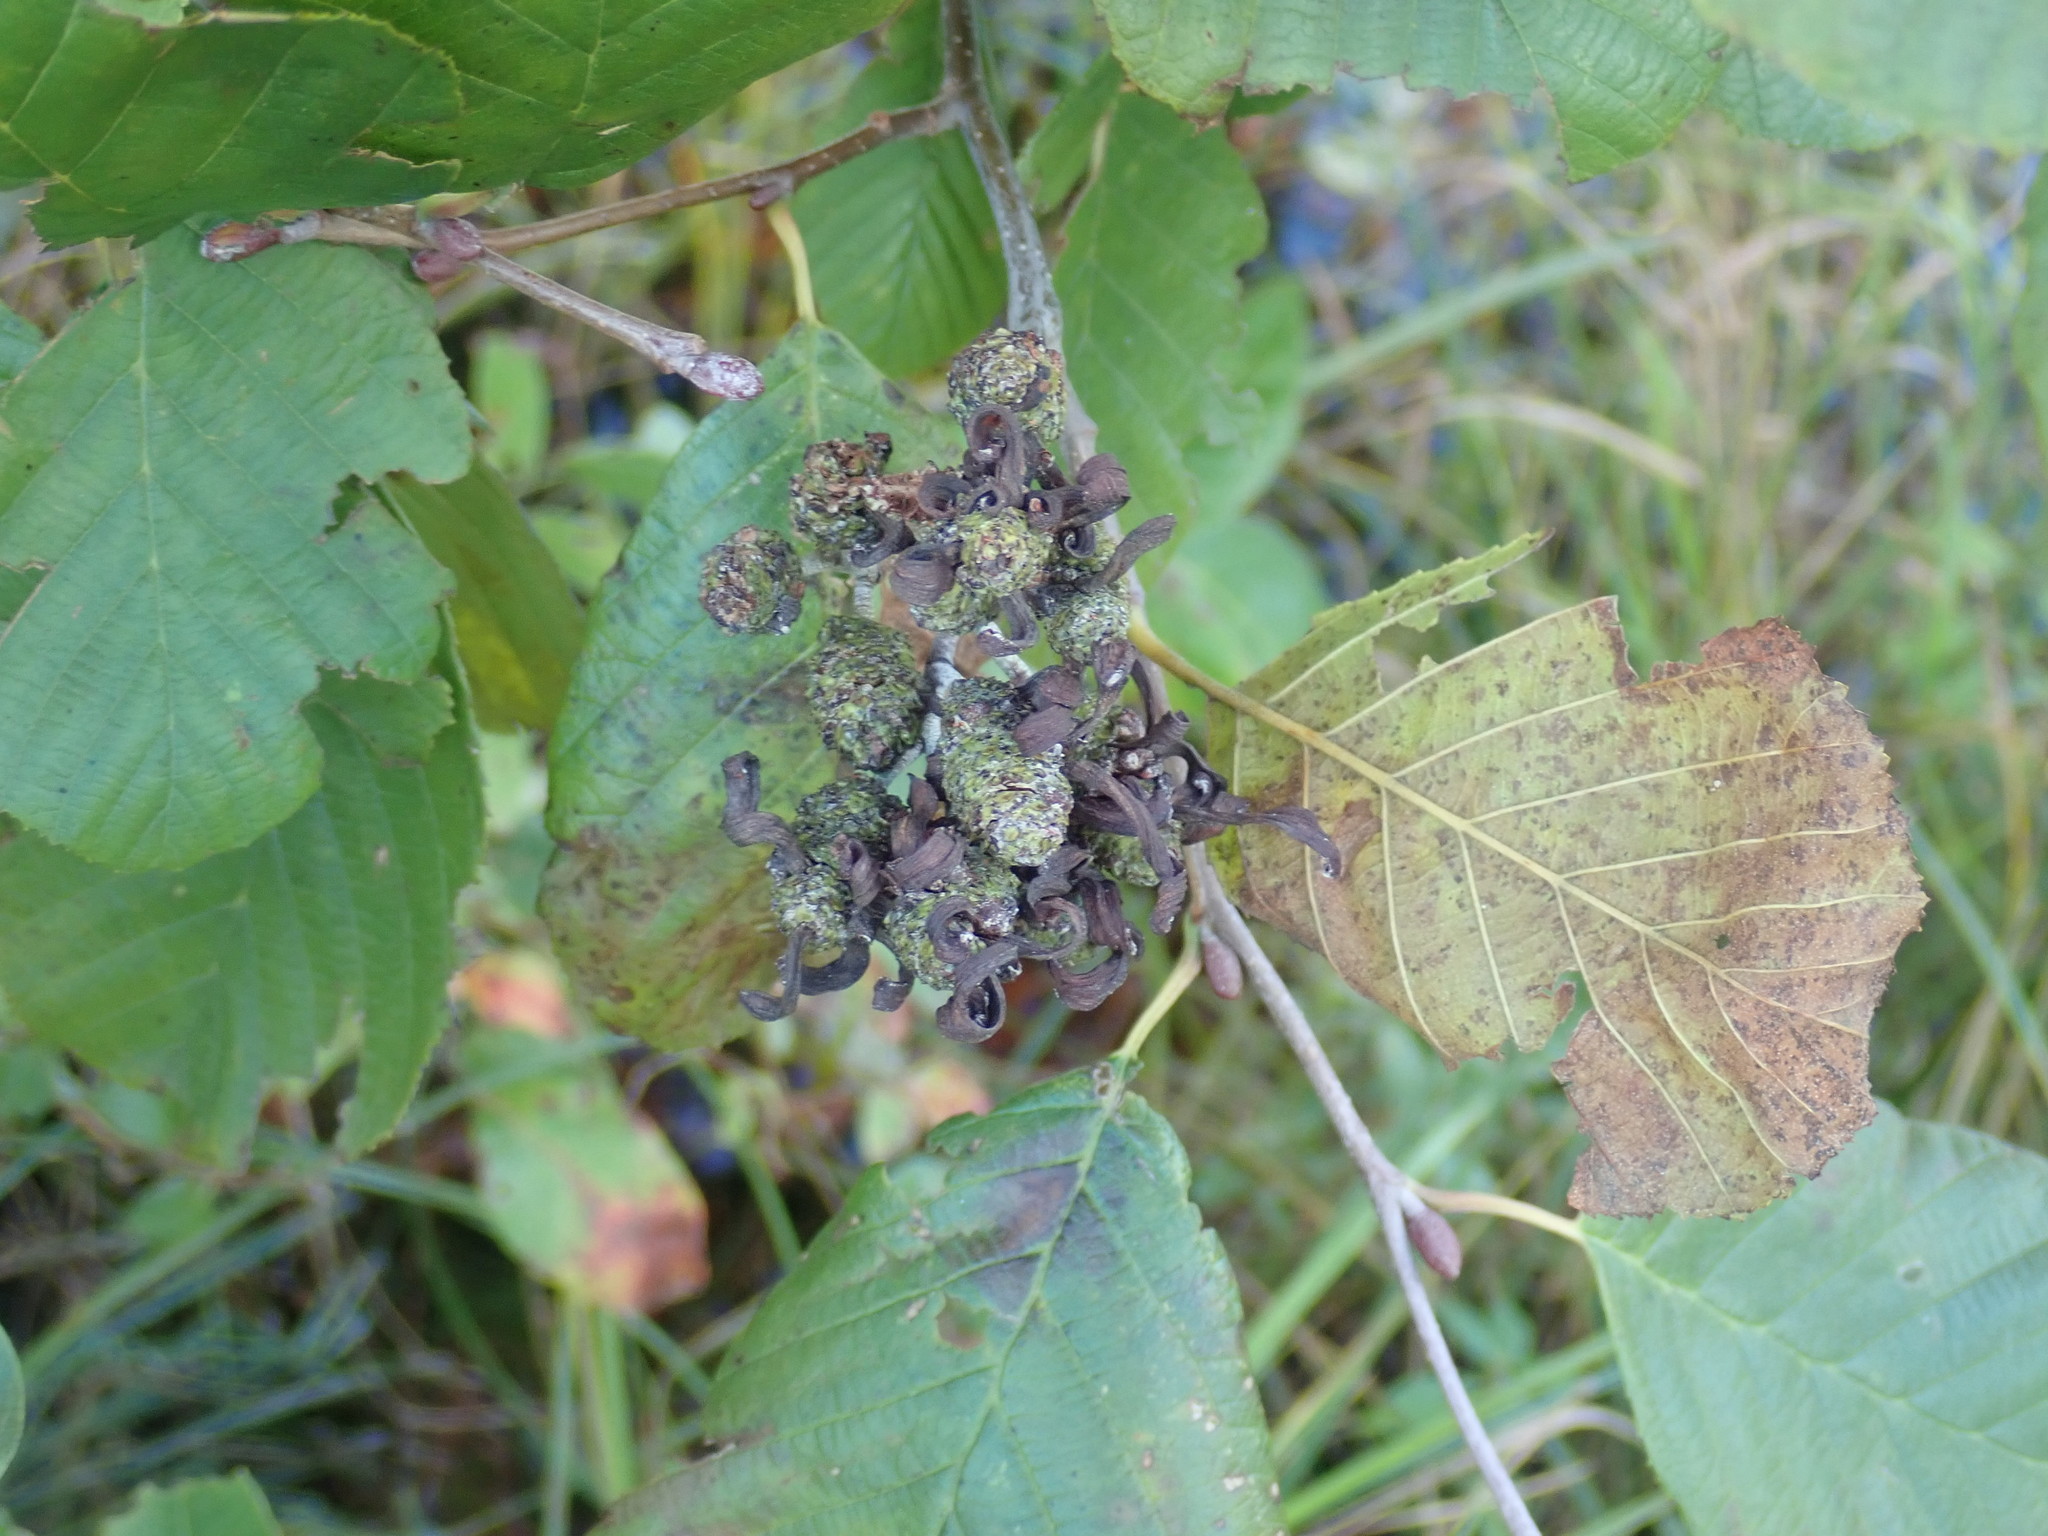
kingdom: Fungi
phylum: Ascomycota
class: Taphrinomycetes
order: Taphrinales
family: Taphrinaceae
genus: Taphrina
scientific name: Taphrina robinsoniana
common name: Eastern american alder tongue gall fungus
